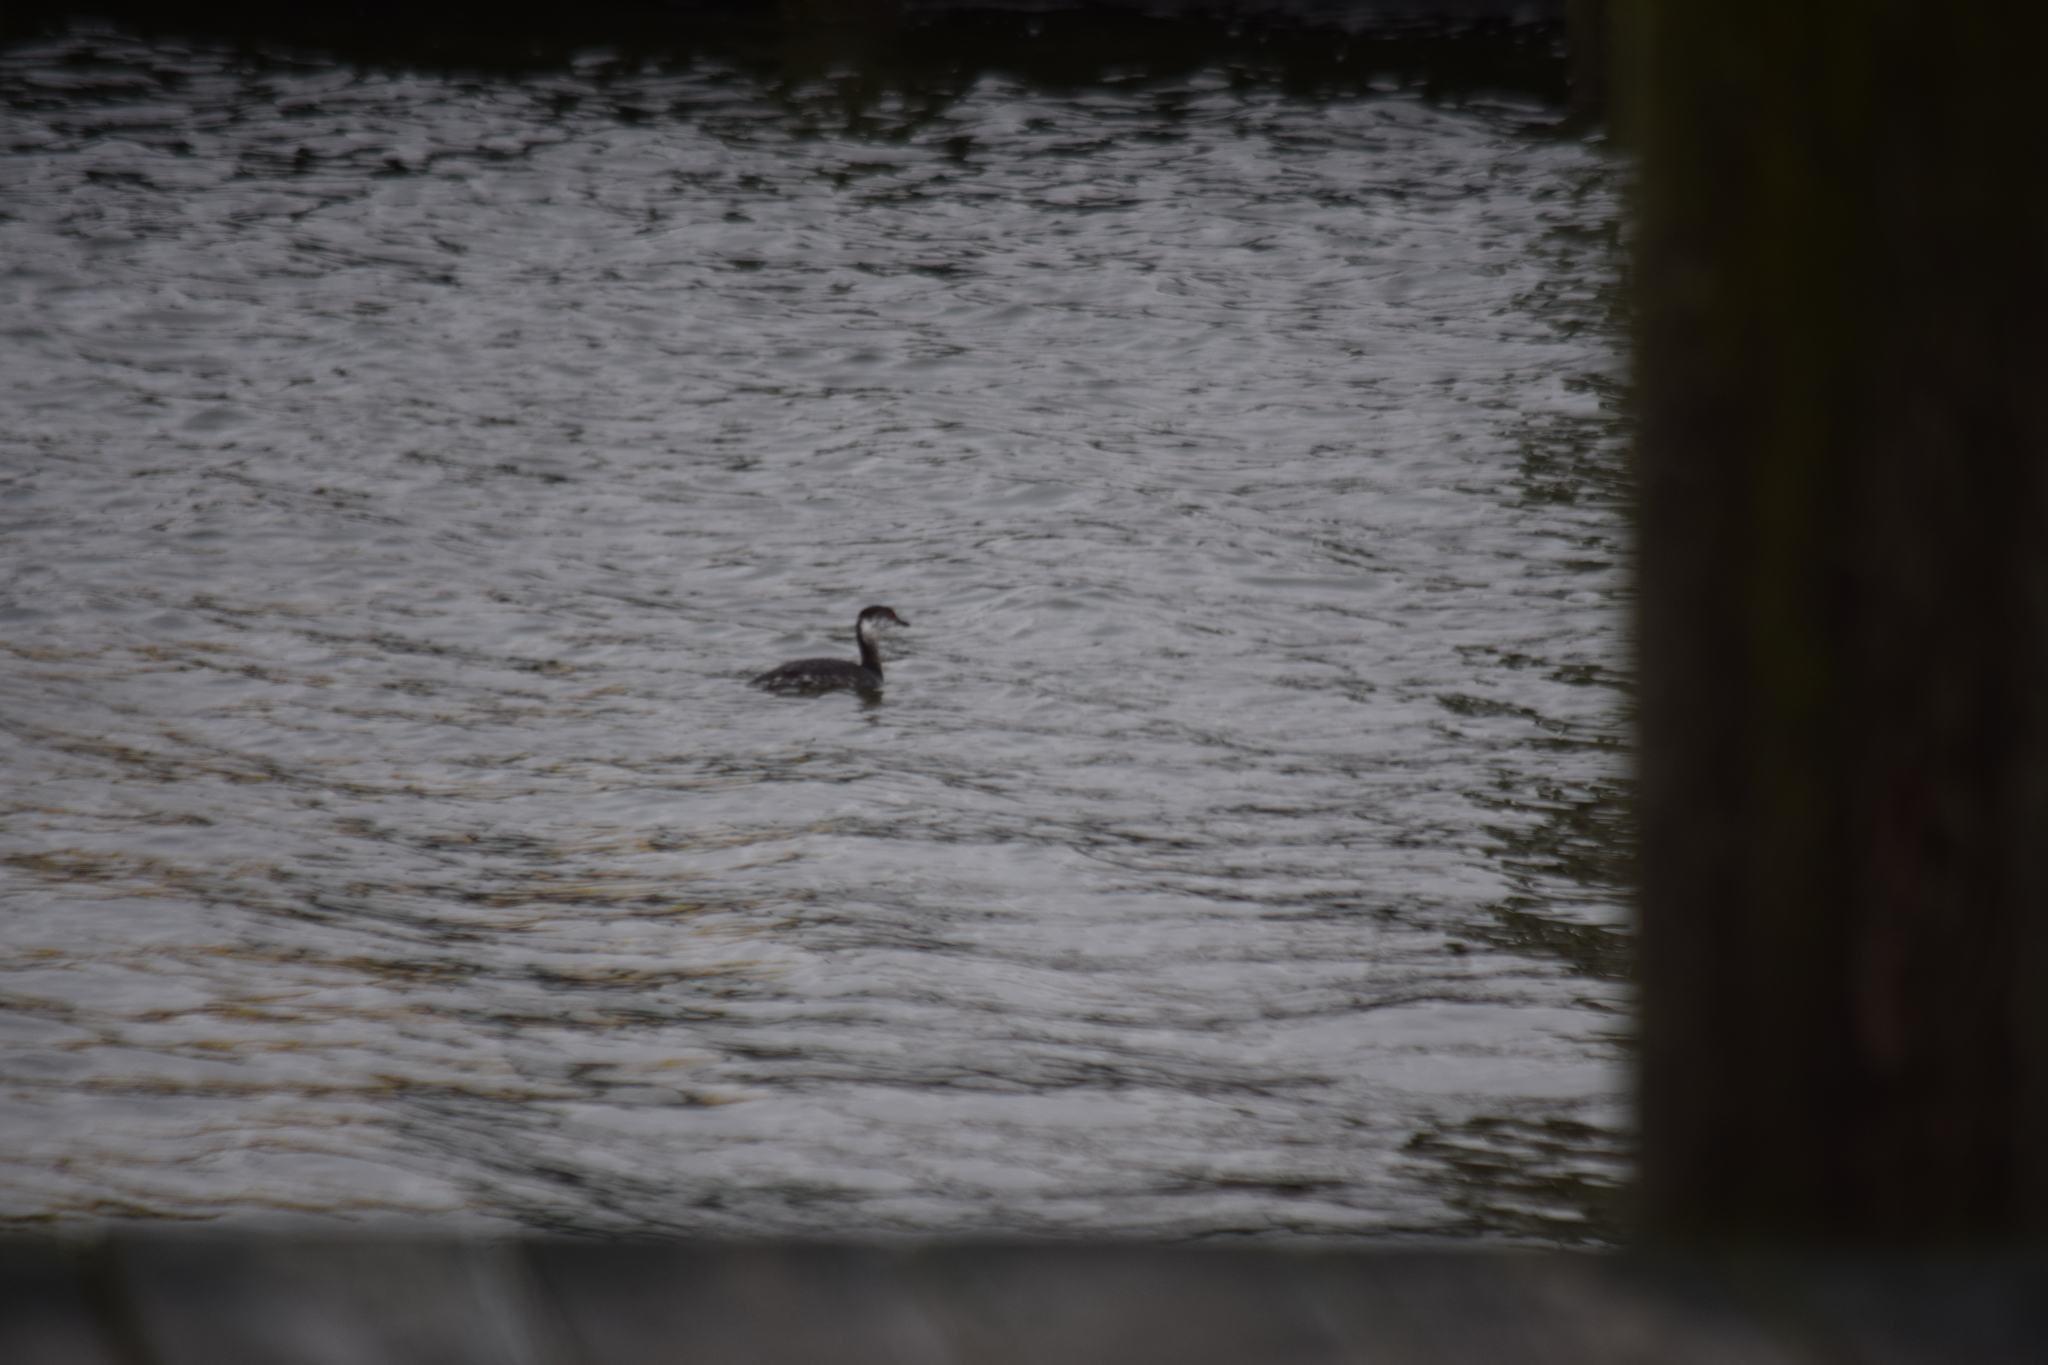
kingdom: Animalia
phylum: Chordata
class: Aves
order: Podicipediformes
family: Podicipedidae
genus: Podiceps
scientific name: Podiceps auritus
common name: Horned grebe
